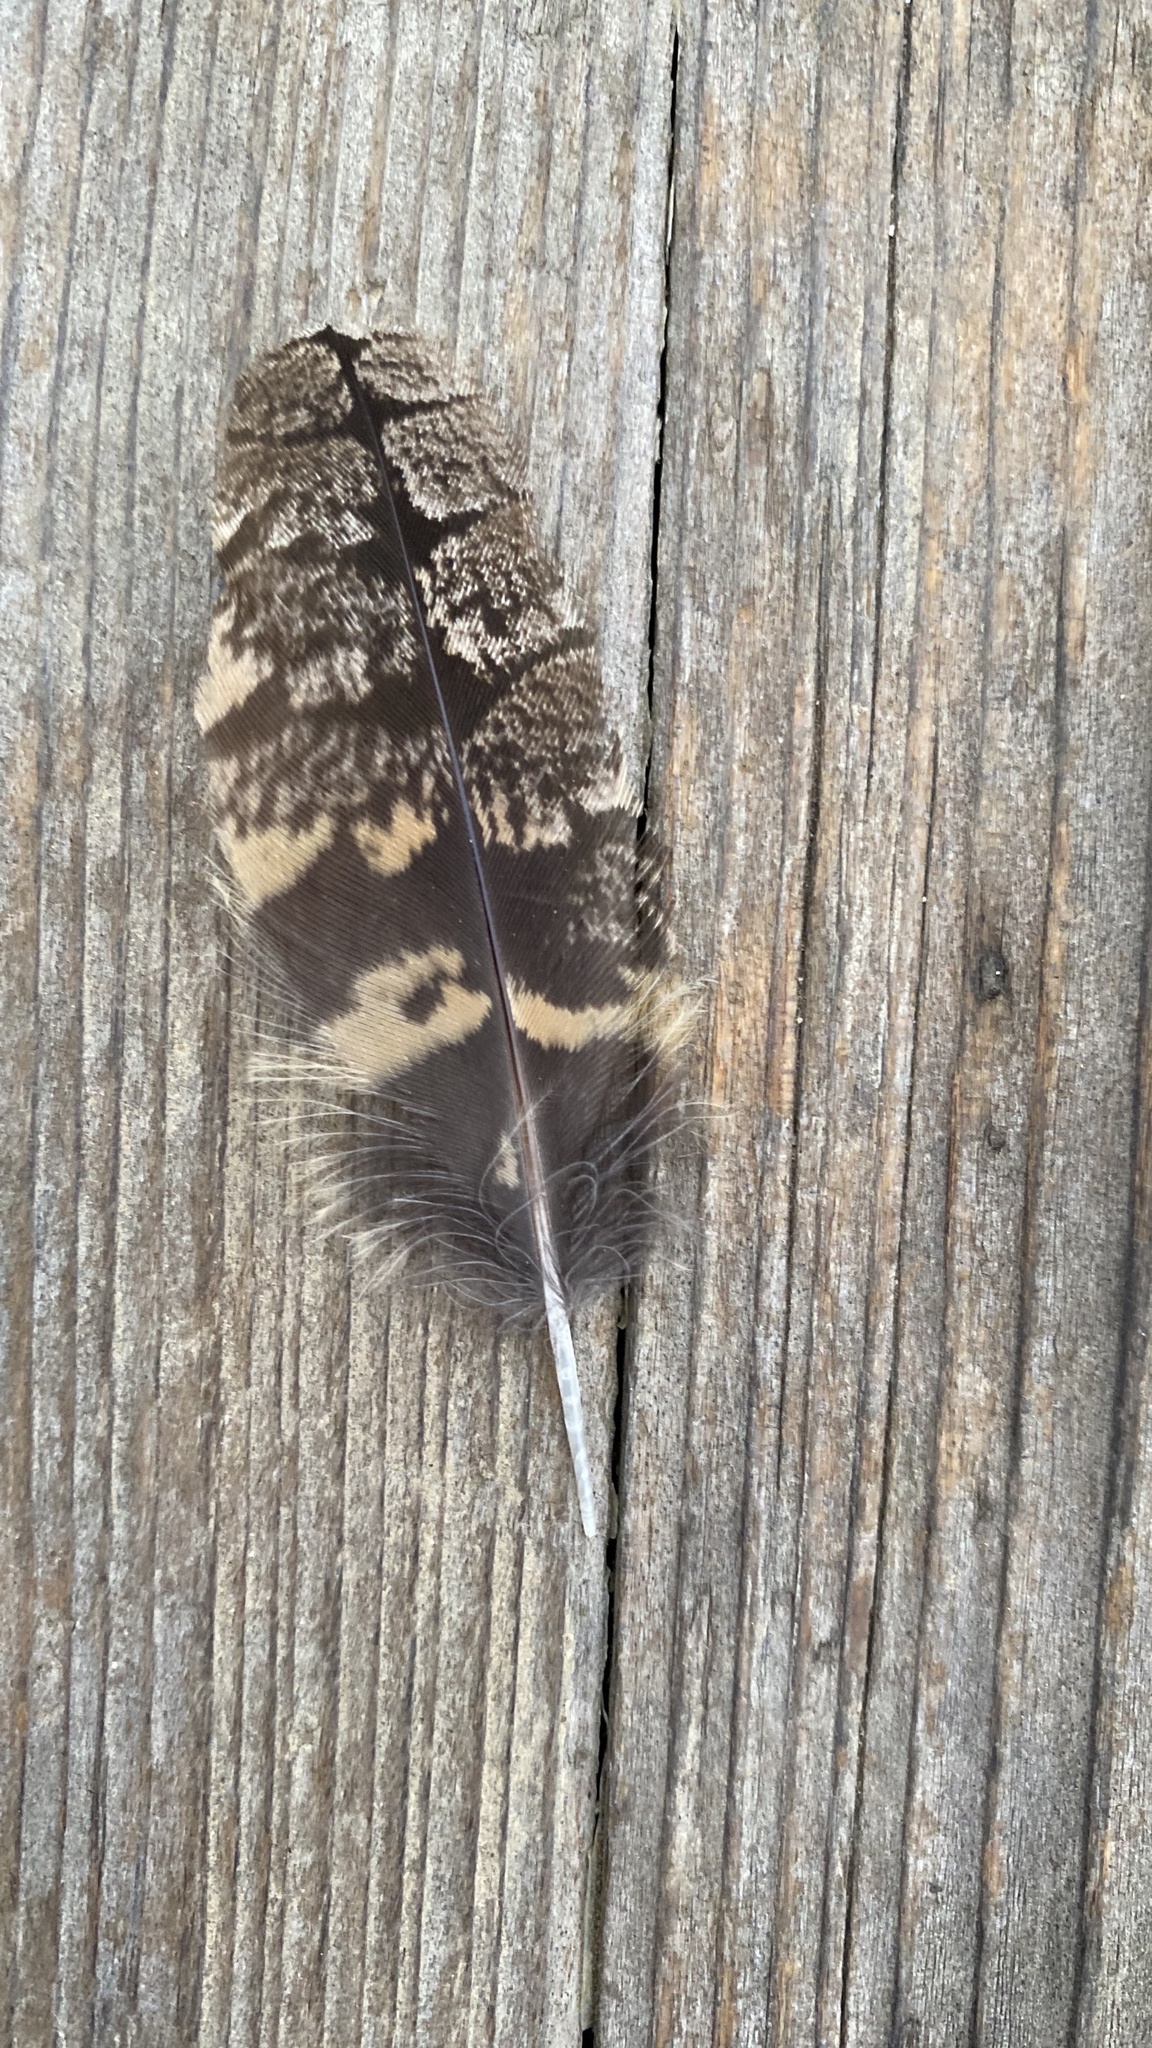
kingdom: Animalia
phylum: Chordata
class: Aves
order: Caprimulgiformes
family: Caprimulgidae
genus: Phalaenoptilus
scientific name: Phalaenoptilus nuttallii
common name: Common poorwill
